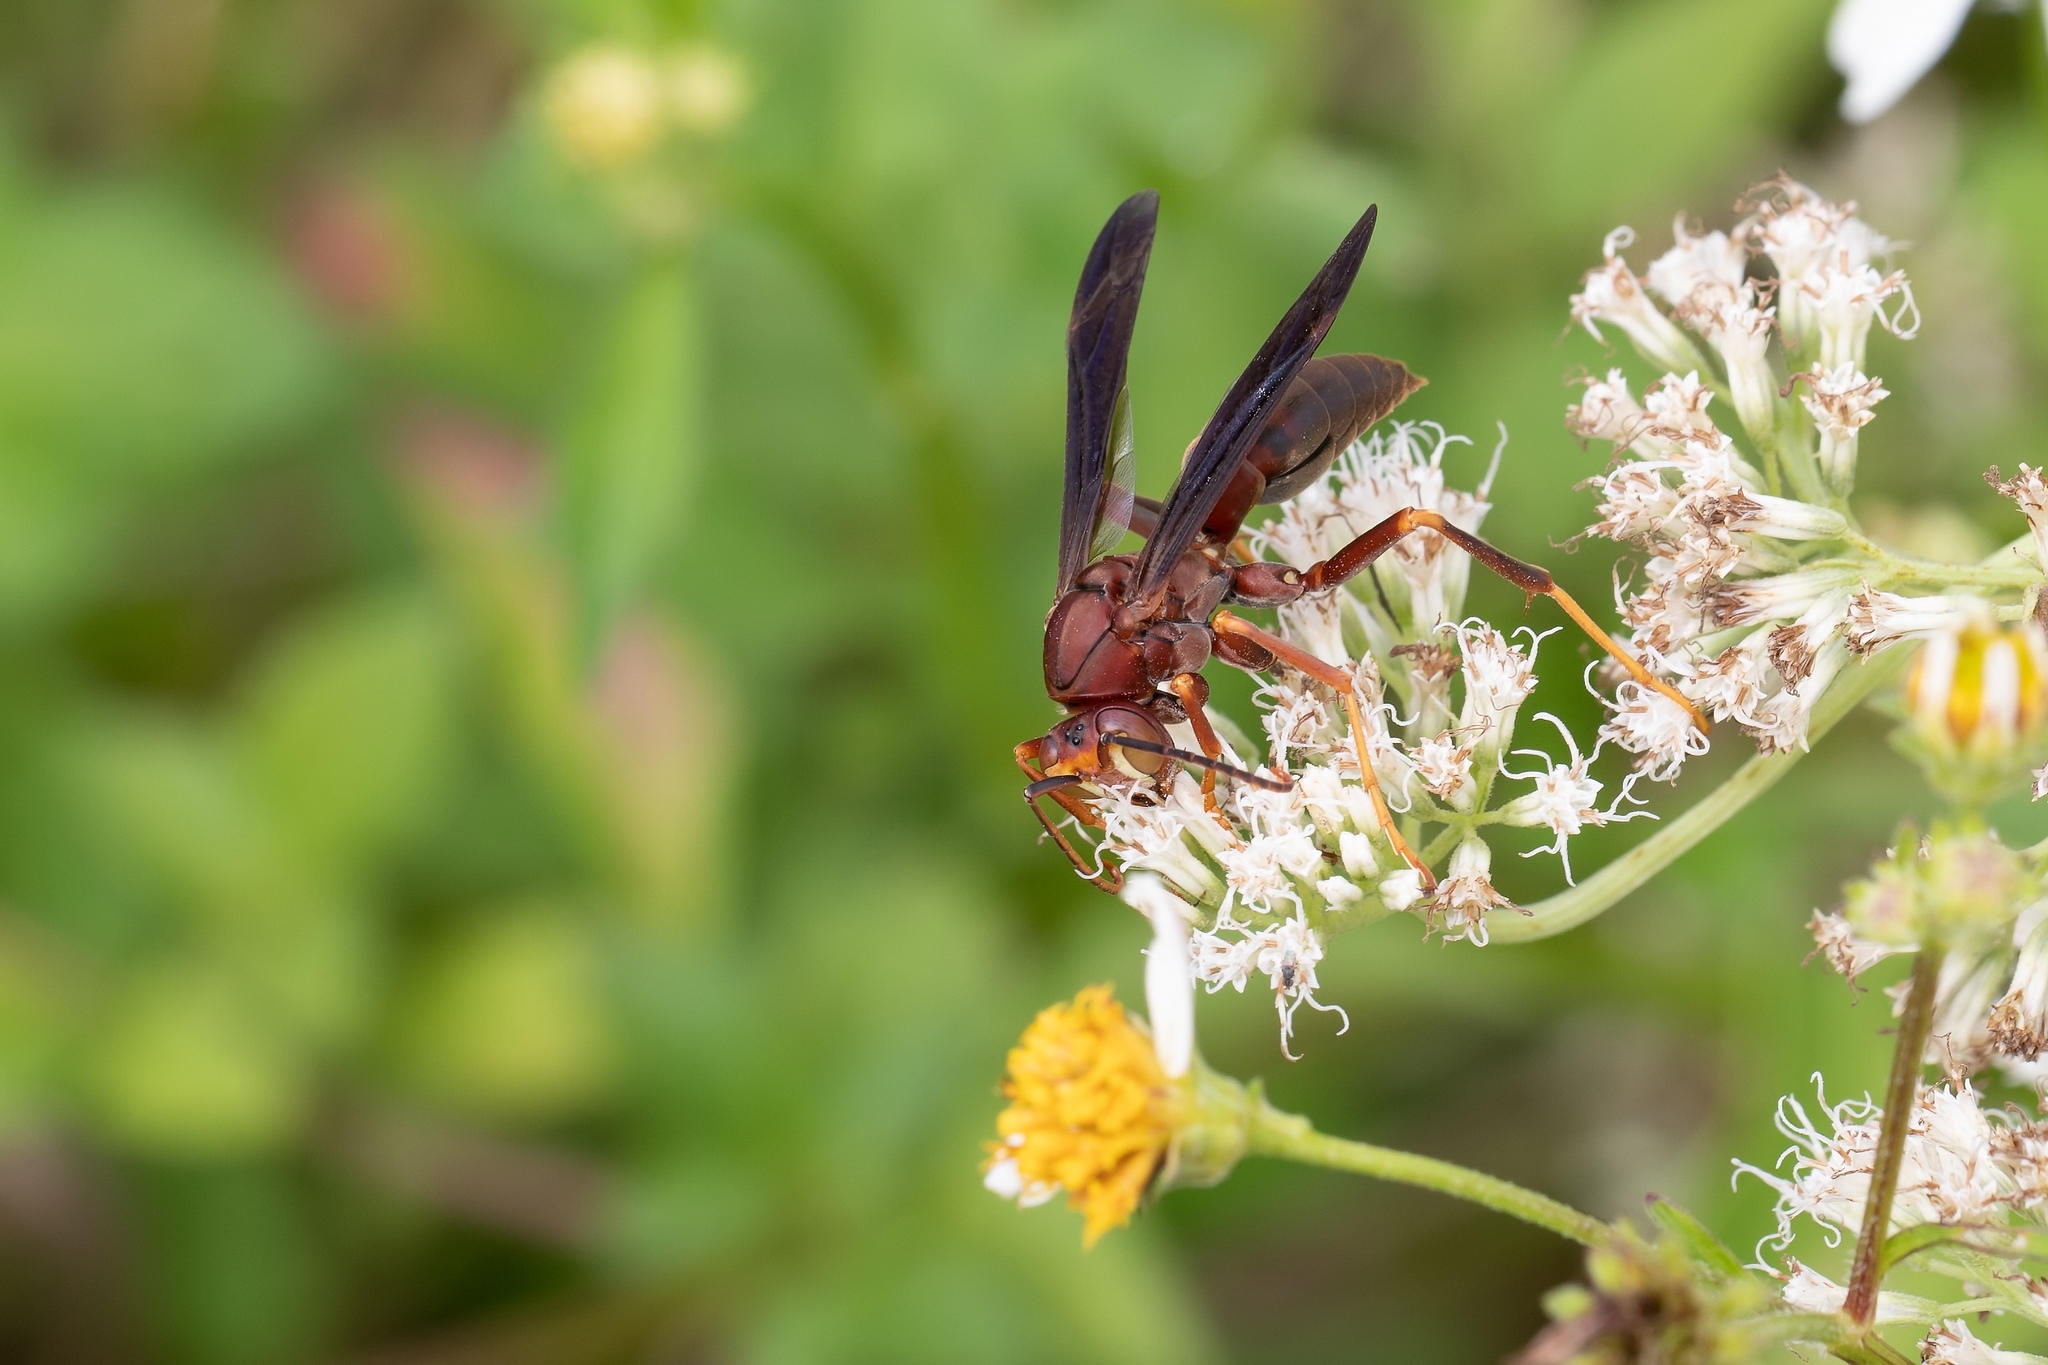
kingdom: Animalia
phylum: Arthropoda
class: Insecta
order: Hymenoptera
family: Eumenidae
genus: Polistes
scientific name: Polistes metricus
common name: Metric paper wasp
